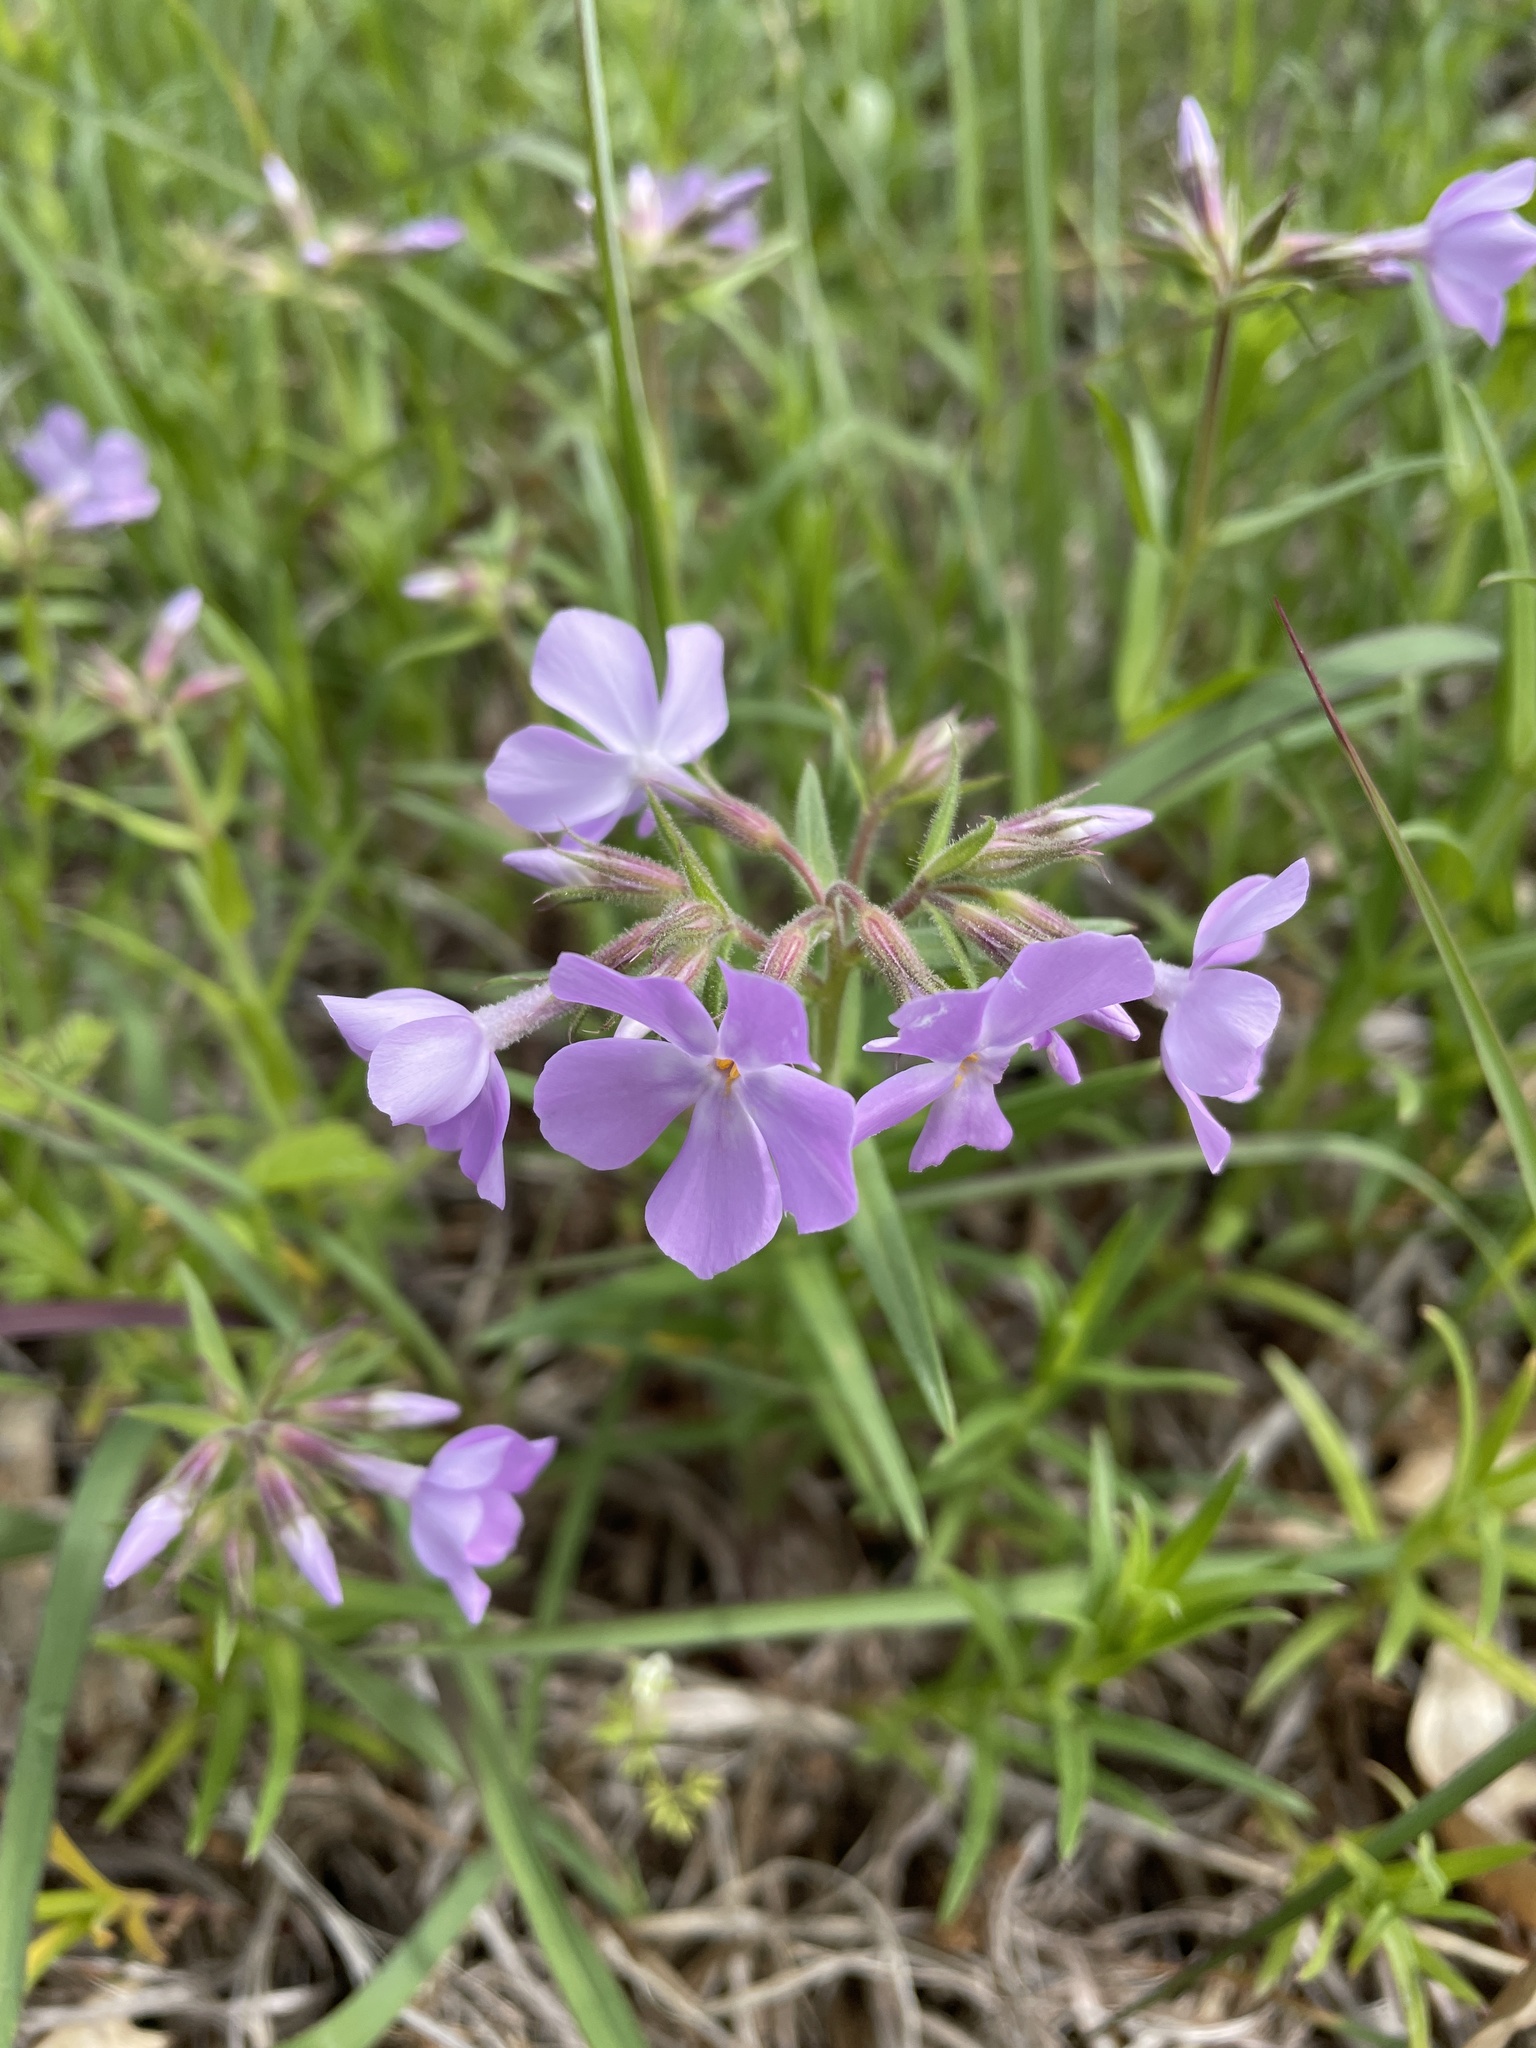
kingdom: Plantae
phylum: Tracheophyta
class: Magnoliopsida
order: Ericales
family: Polemoniaceae
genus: Phlox
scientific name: Phlox pilosa
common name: Prairie phlox
